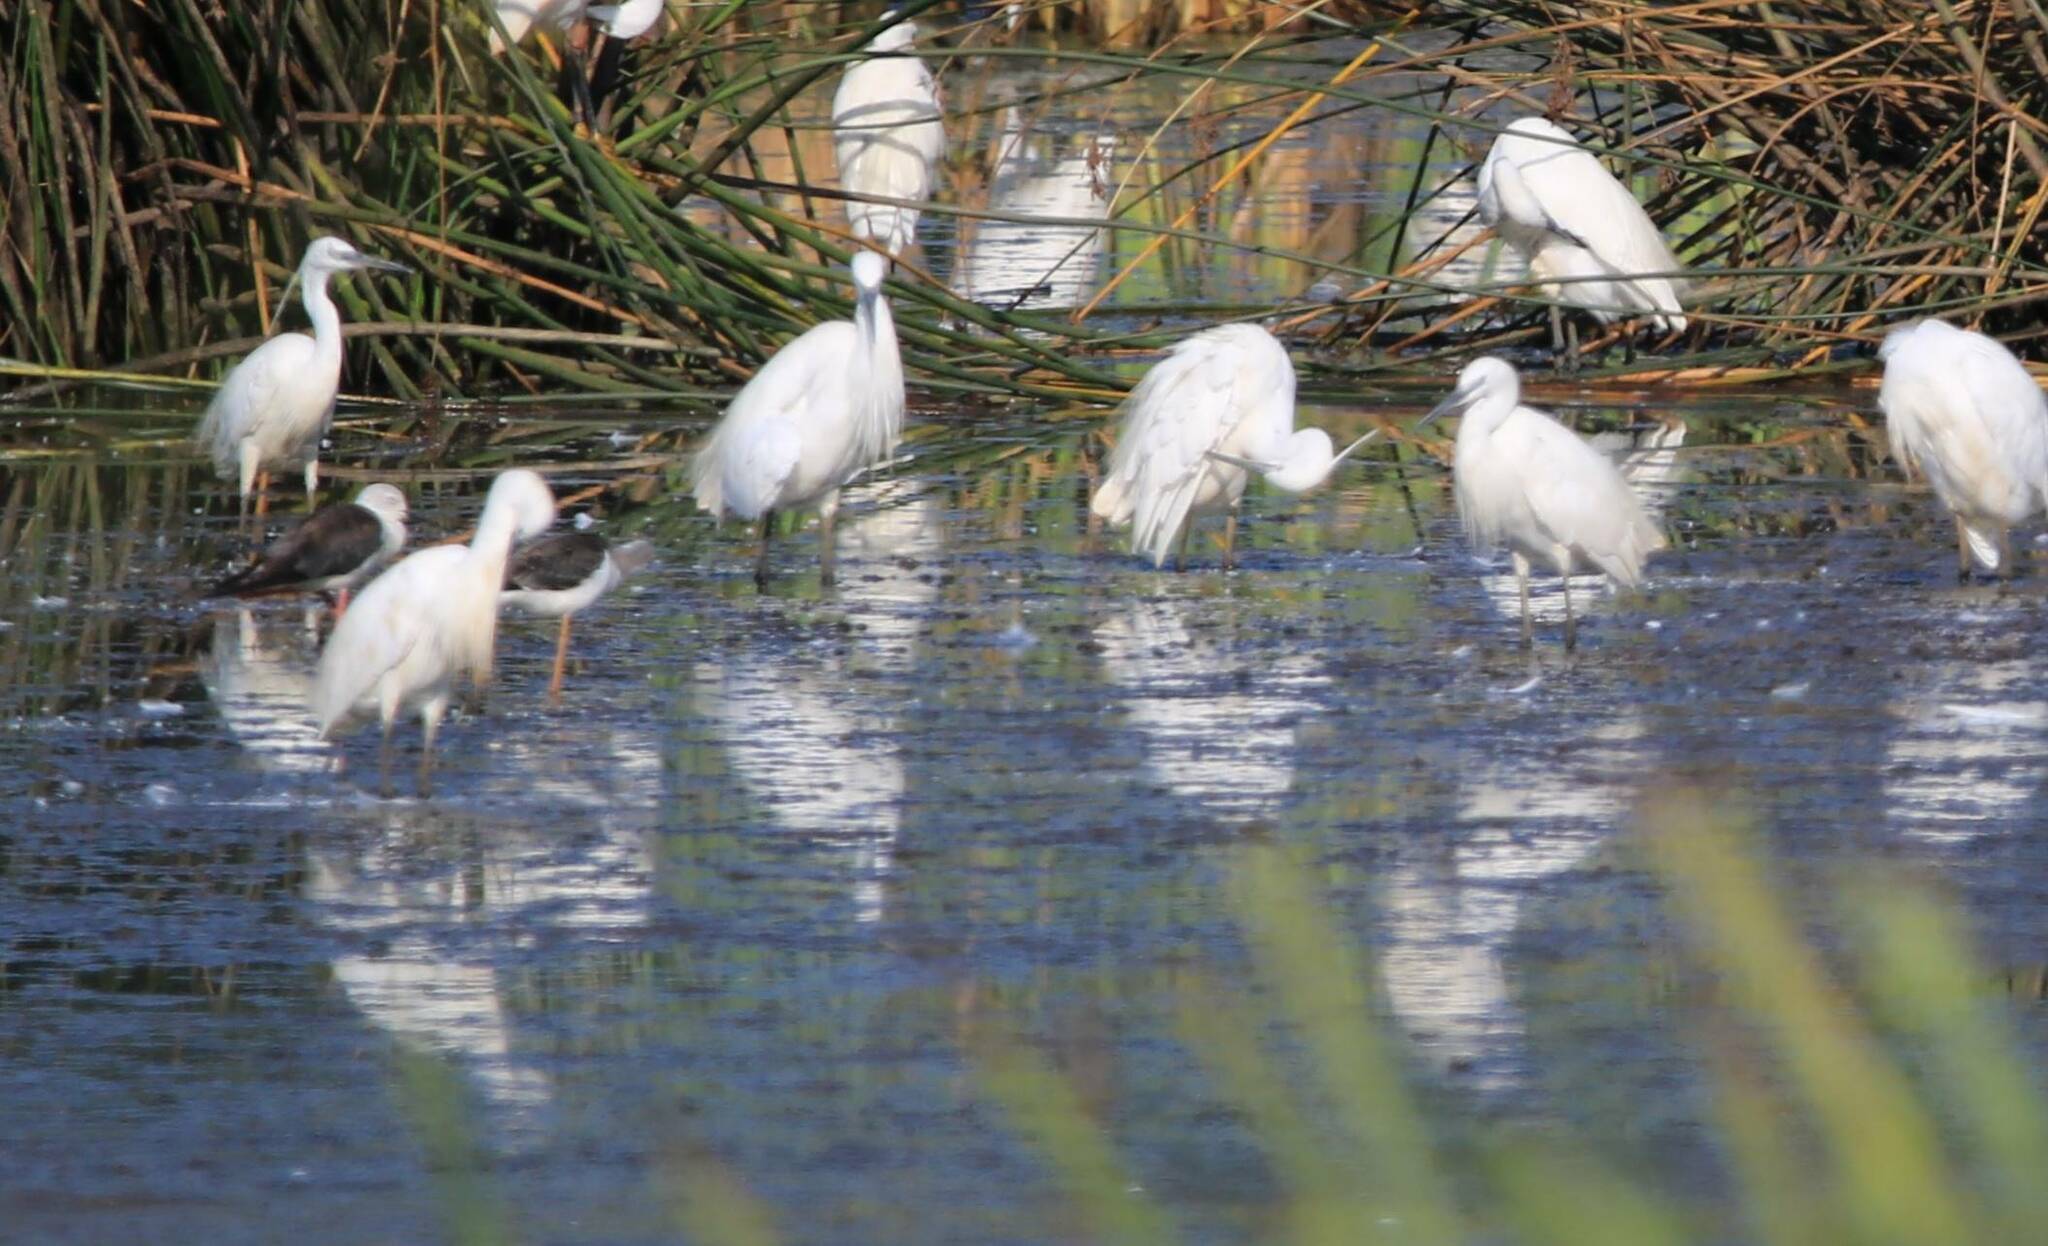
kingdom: Animalia
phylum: Chordata
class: Aves
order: Pelecaniformes
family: Ardeidae
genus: Egretta
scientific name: Egretta garzetta
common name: Little egret
